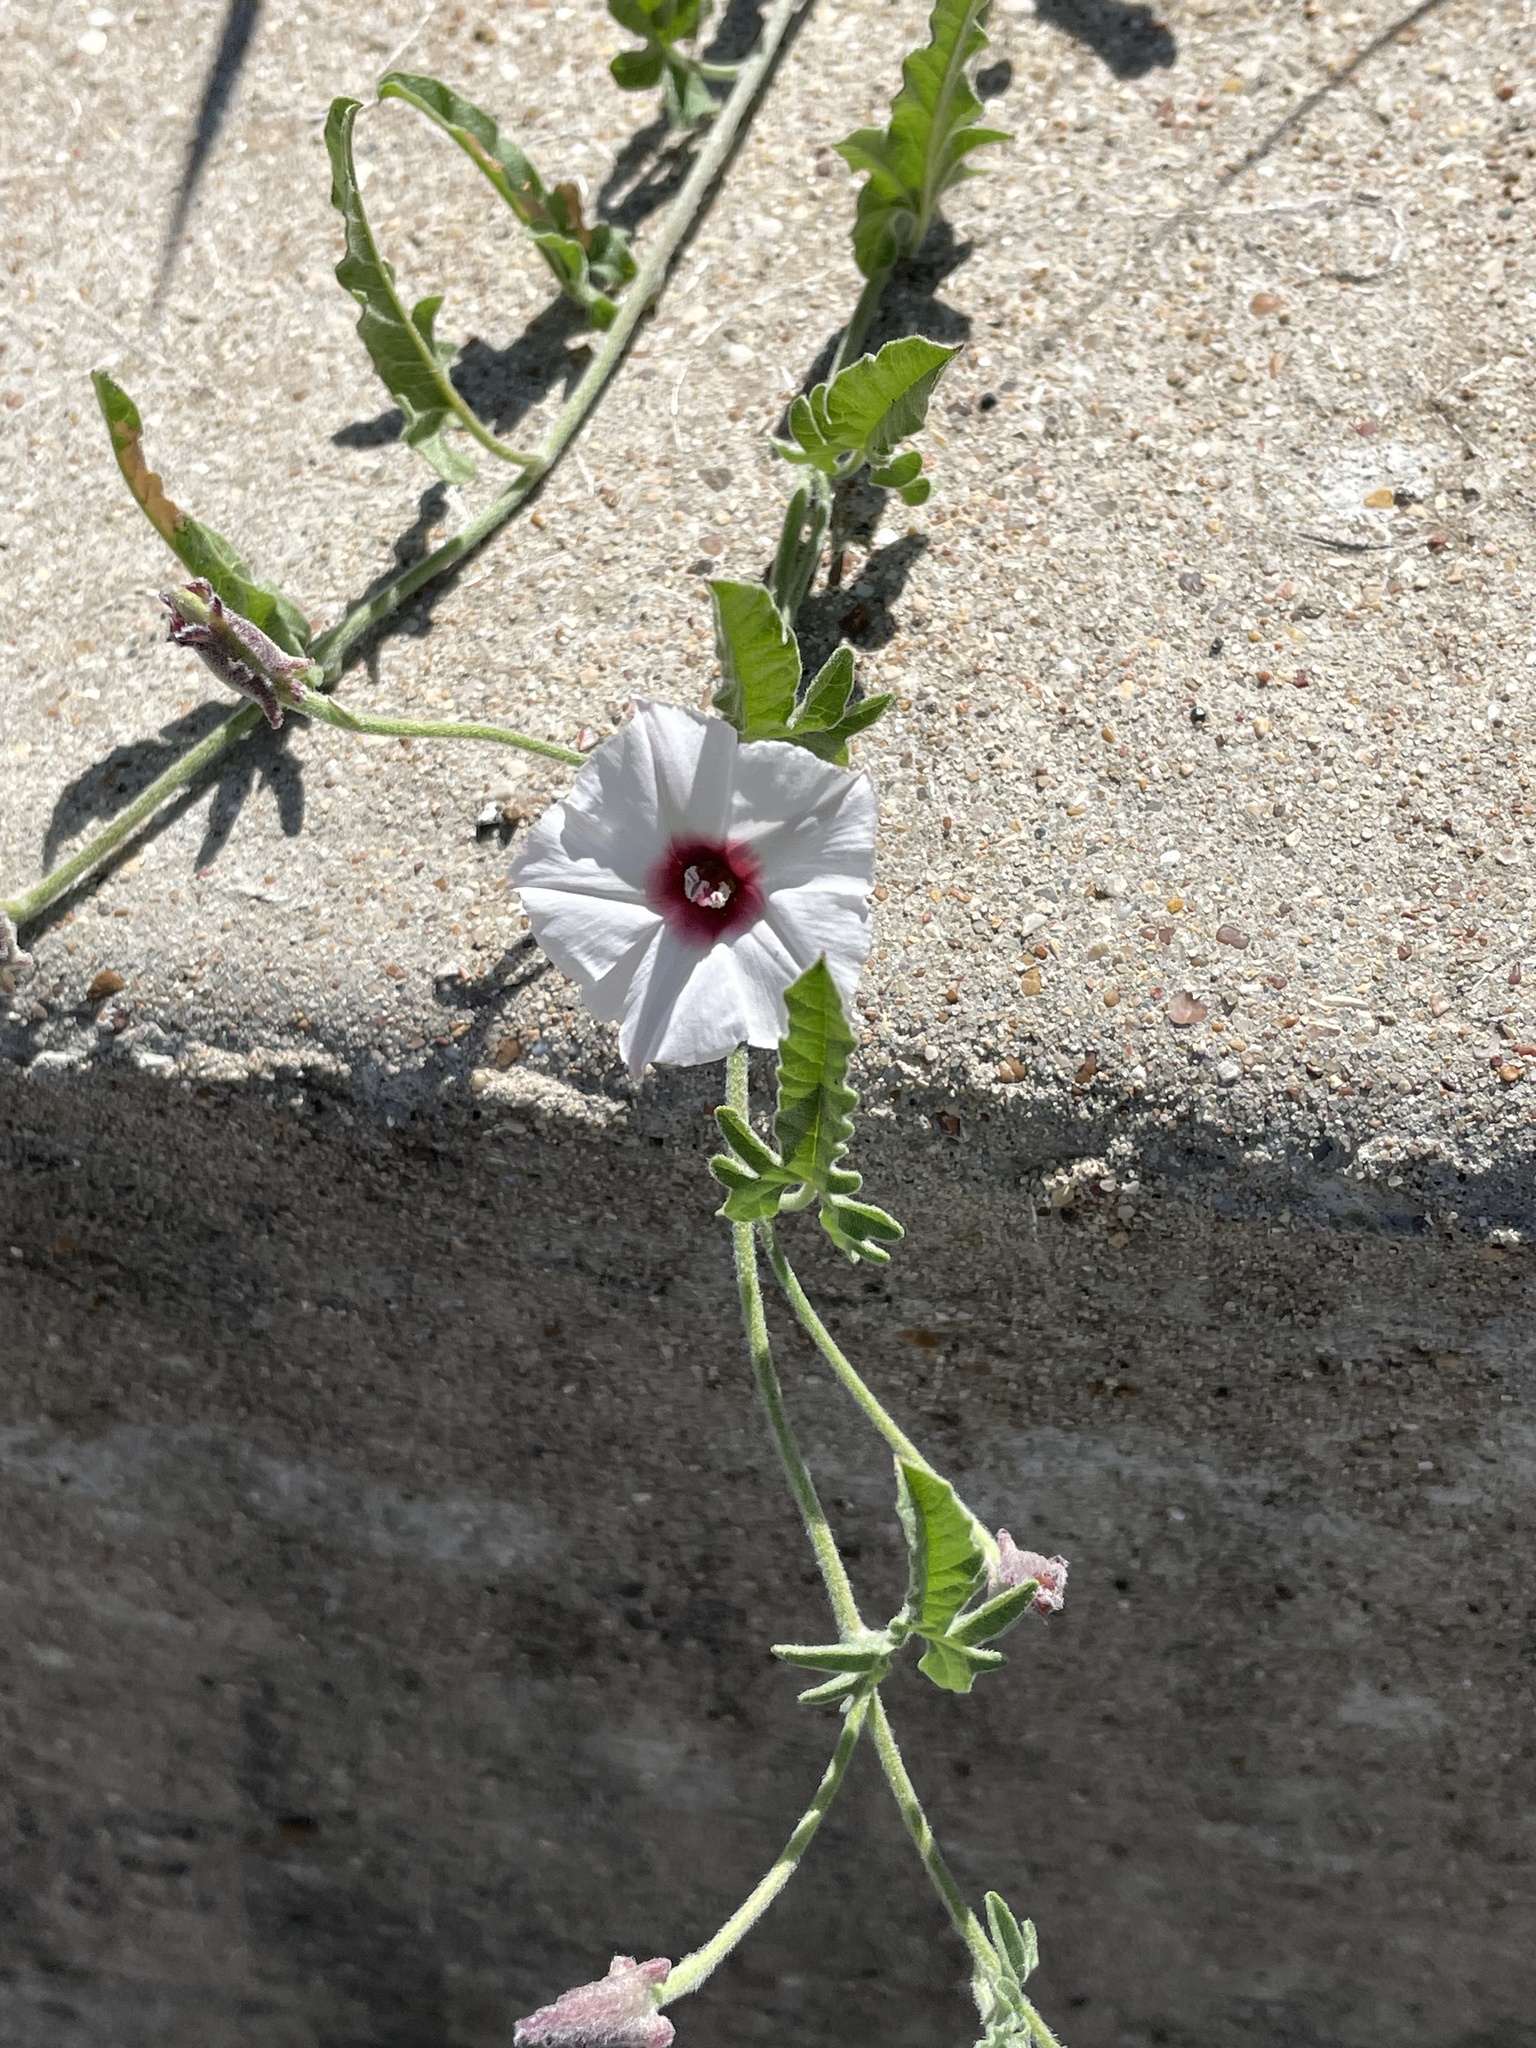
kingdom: Plantae
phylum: Tracheophyta
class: Magnoliopsida
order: Solanales
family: Convolvulaceae
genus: Convolvulus
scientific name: Convolvulus equitans
